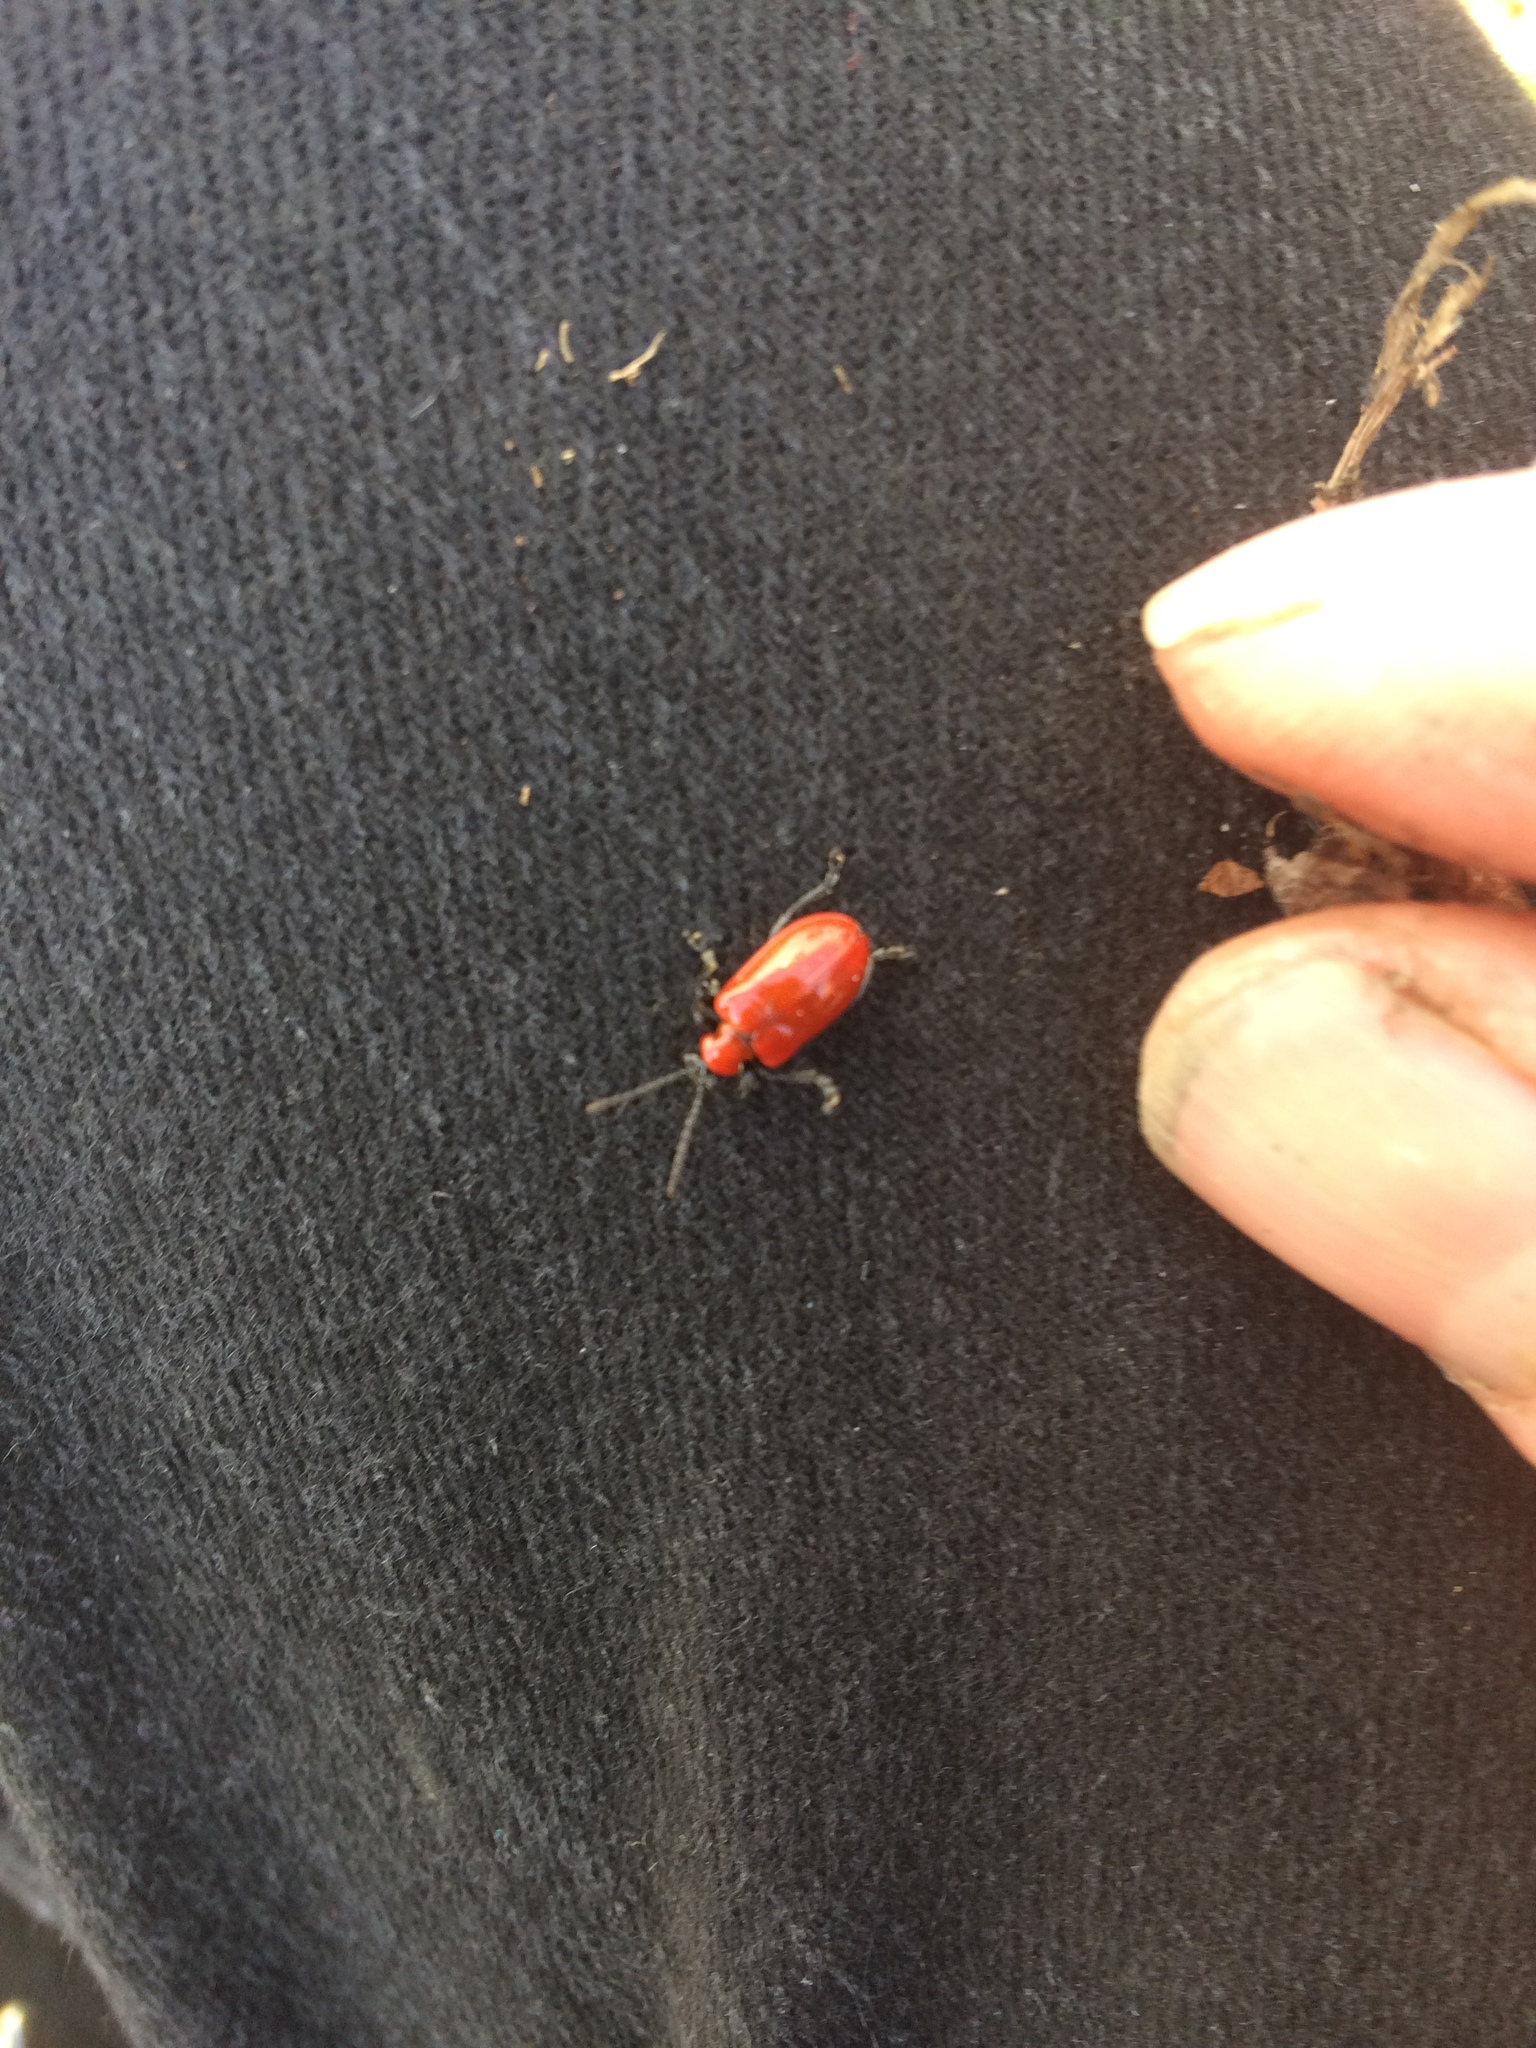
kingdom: Animalia
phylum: Arthropoda
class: Insecta
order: Coleoptera
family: Chrysomelidae
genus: Lilioceris
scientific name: Lilioceris lilii
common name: Lily beetle
